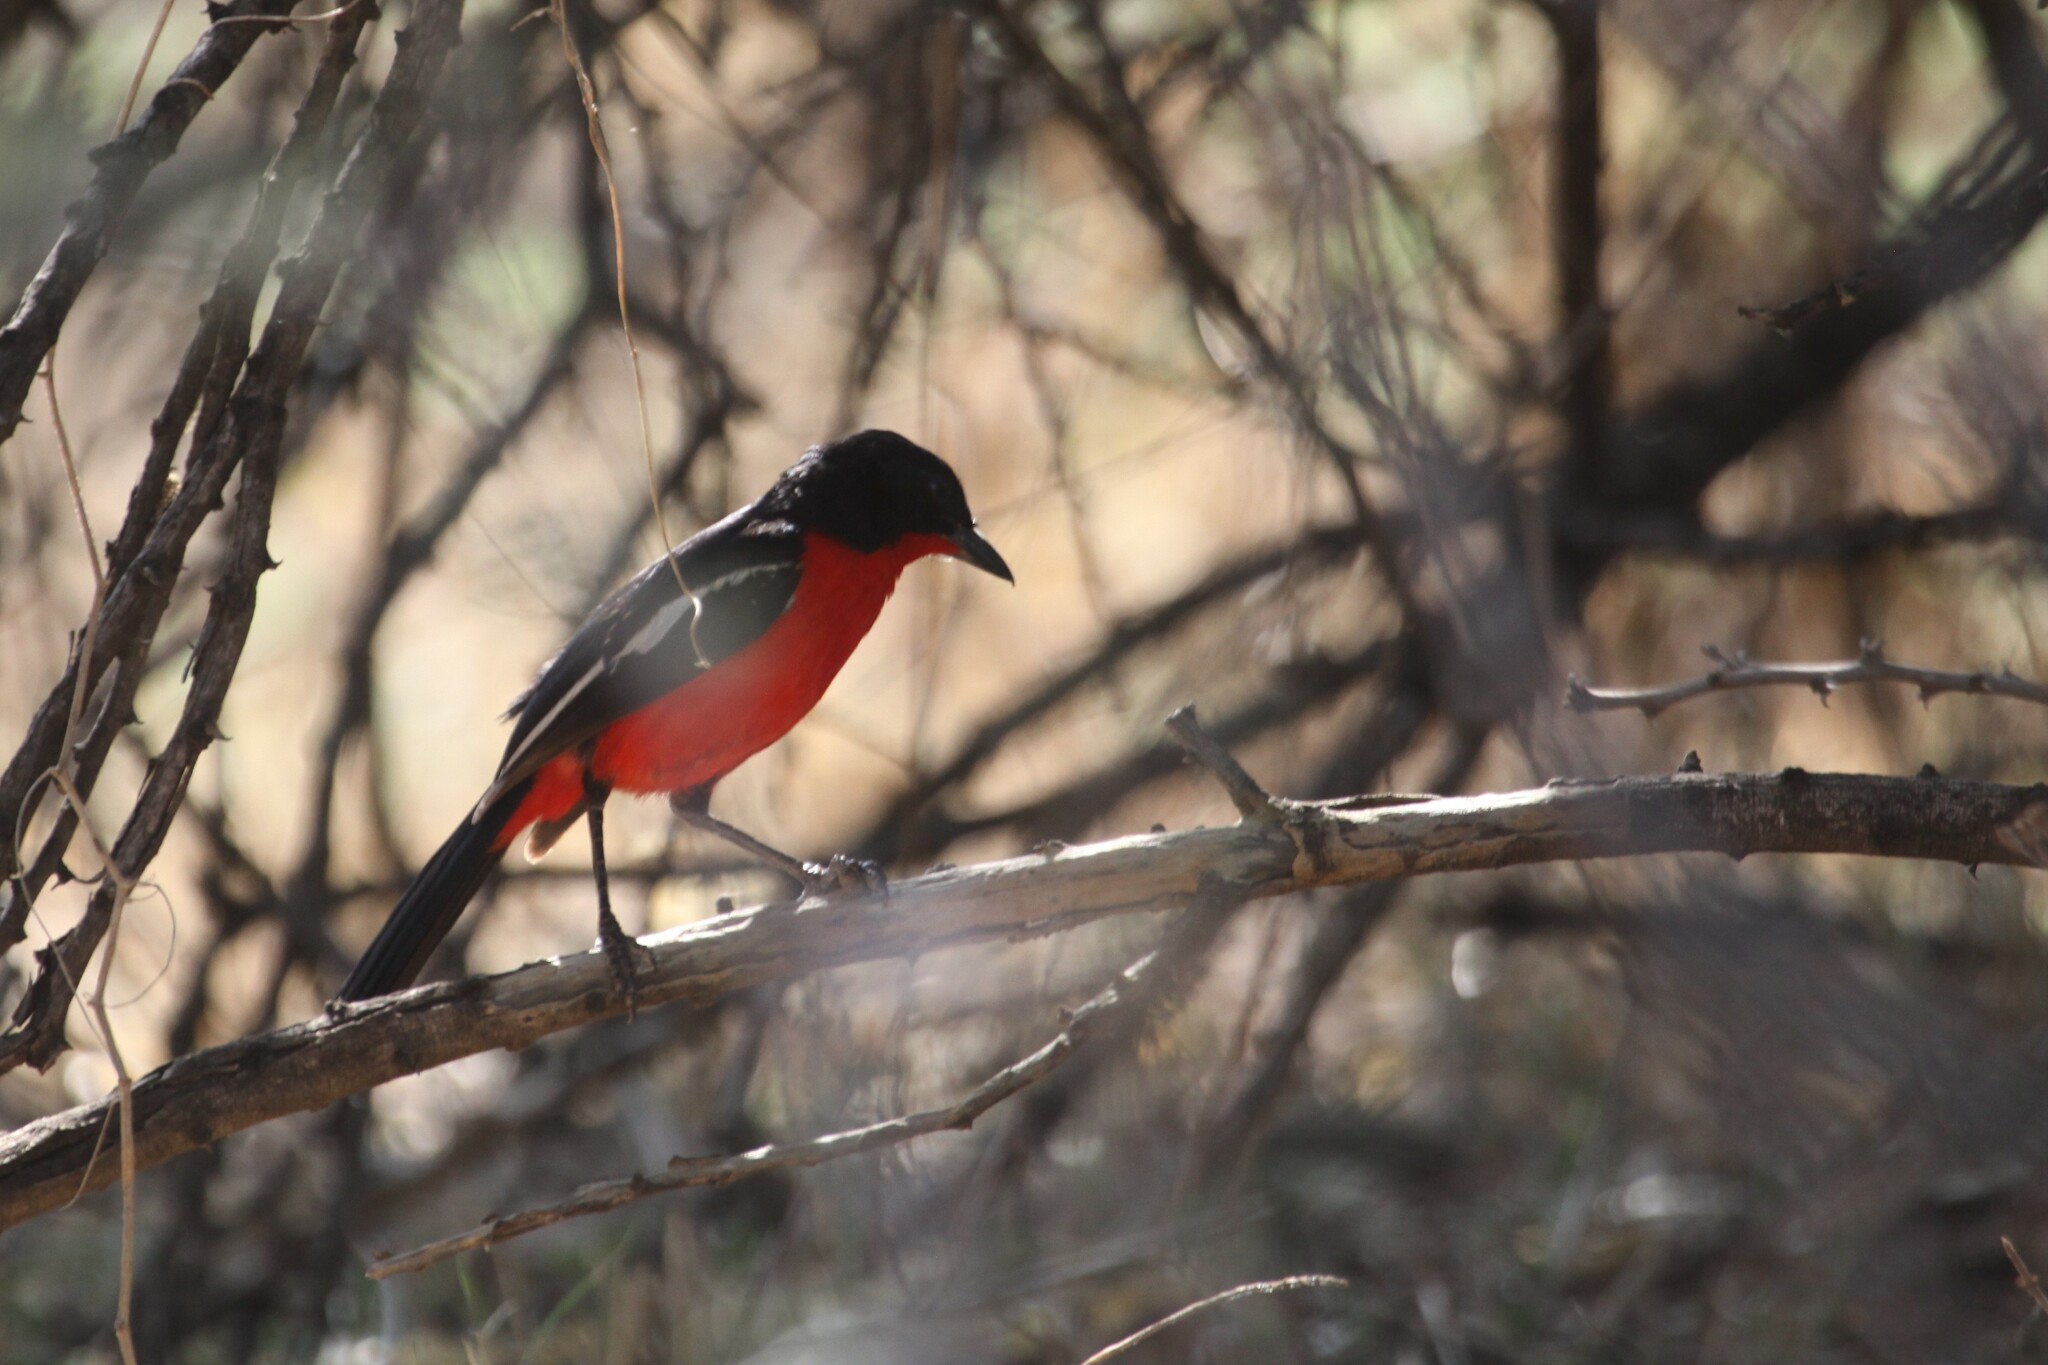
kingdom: Animalia
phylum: Chordata
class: Aves
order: Passeriformes
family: Malaconotidae
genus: Laniarius
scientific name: Laniarius atrococcineus
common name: Crimson-breasted shrike
